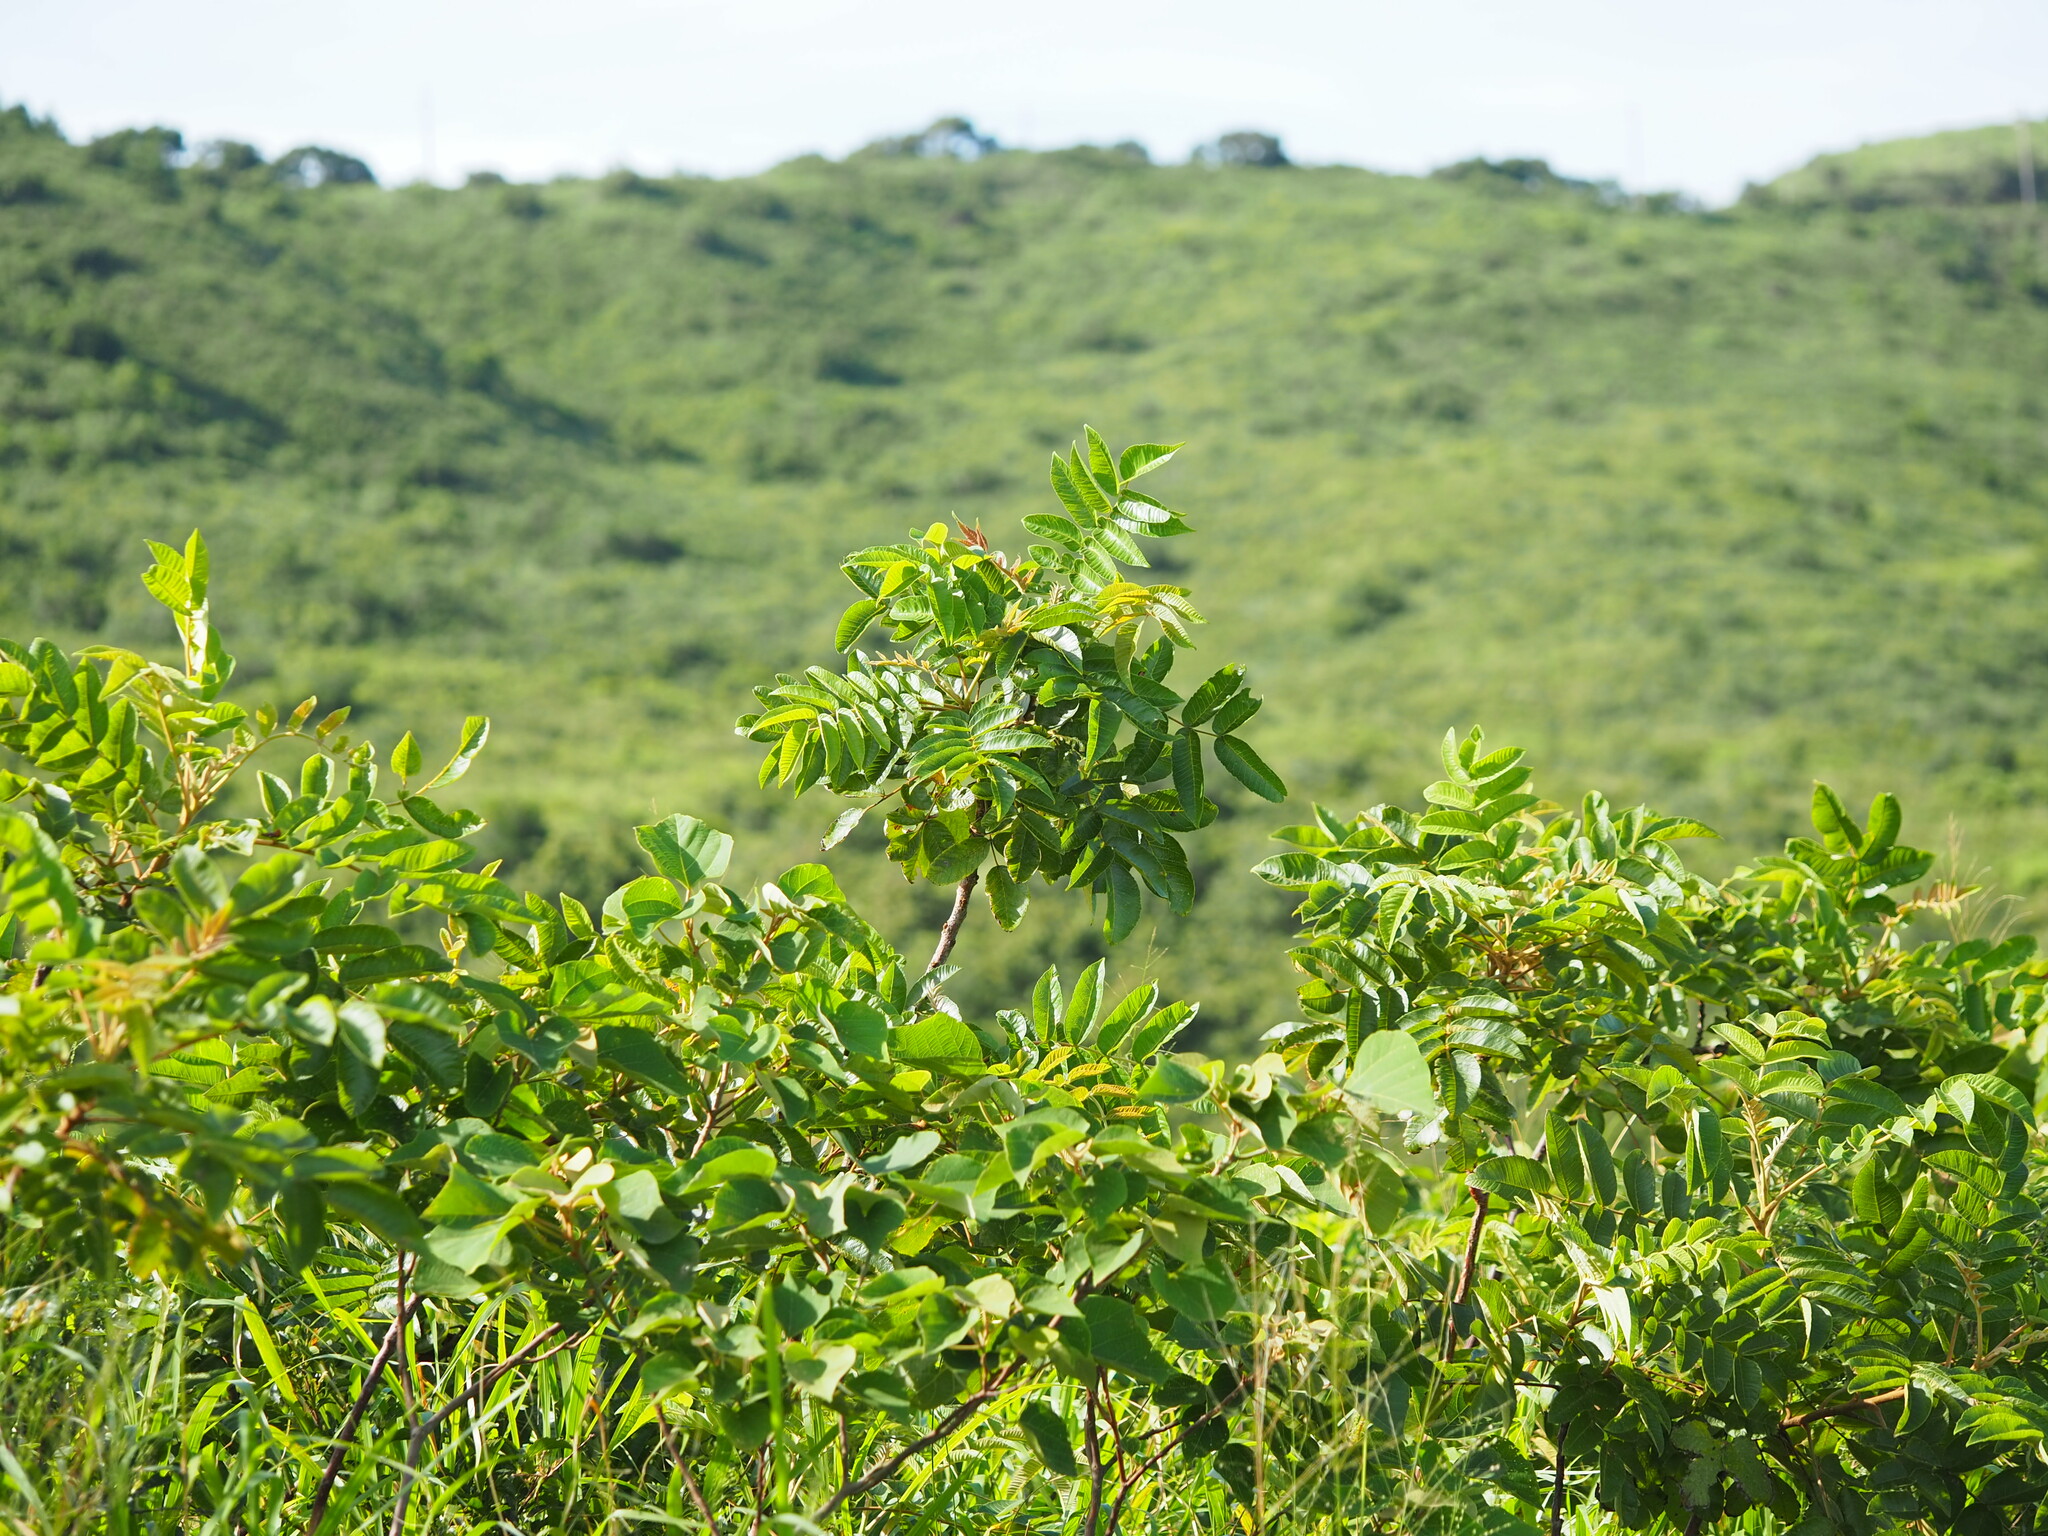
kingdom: Plantae
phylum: Tracheophyta
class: Magnoliopsida
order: Sapindales
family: Anacardiaceae
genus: Rhus
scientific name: Rhus chinensis
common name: Chinese gall
